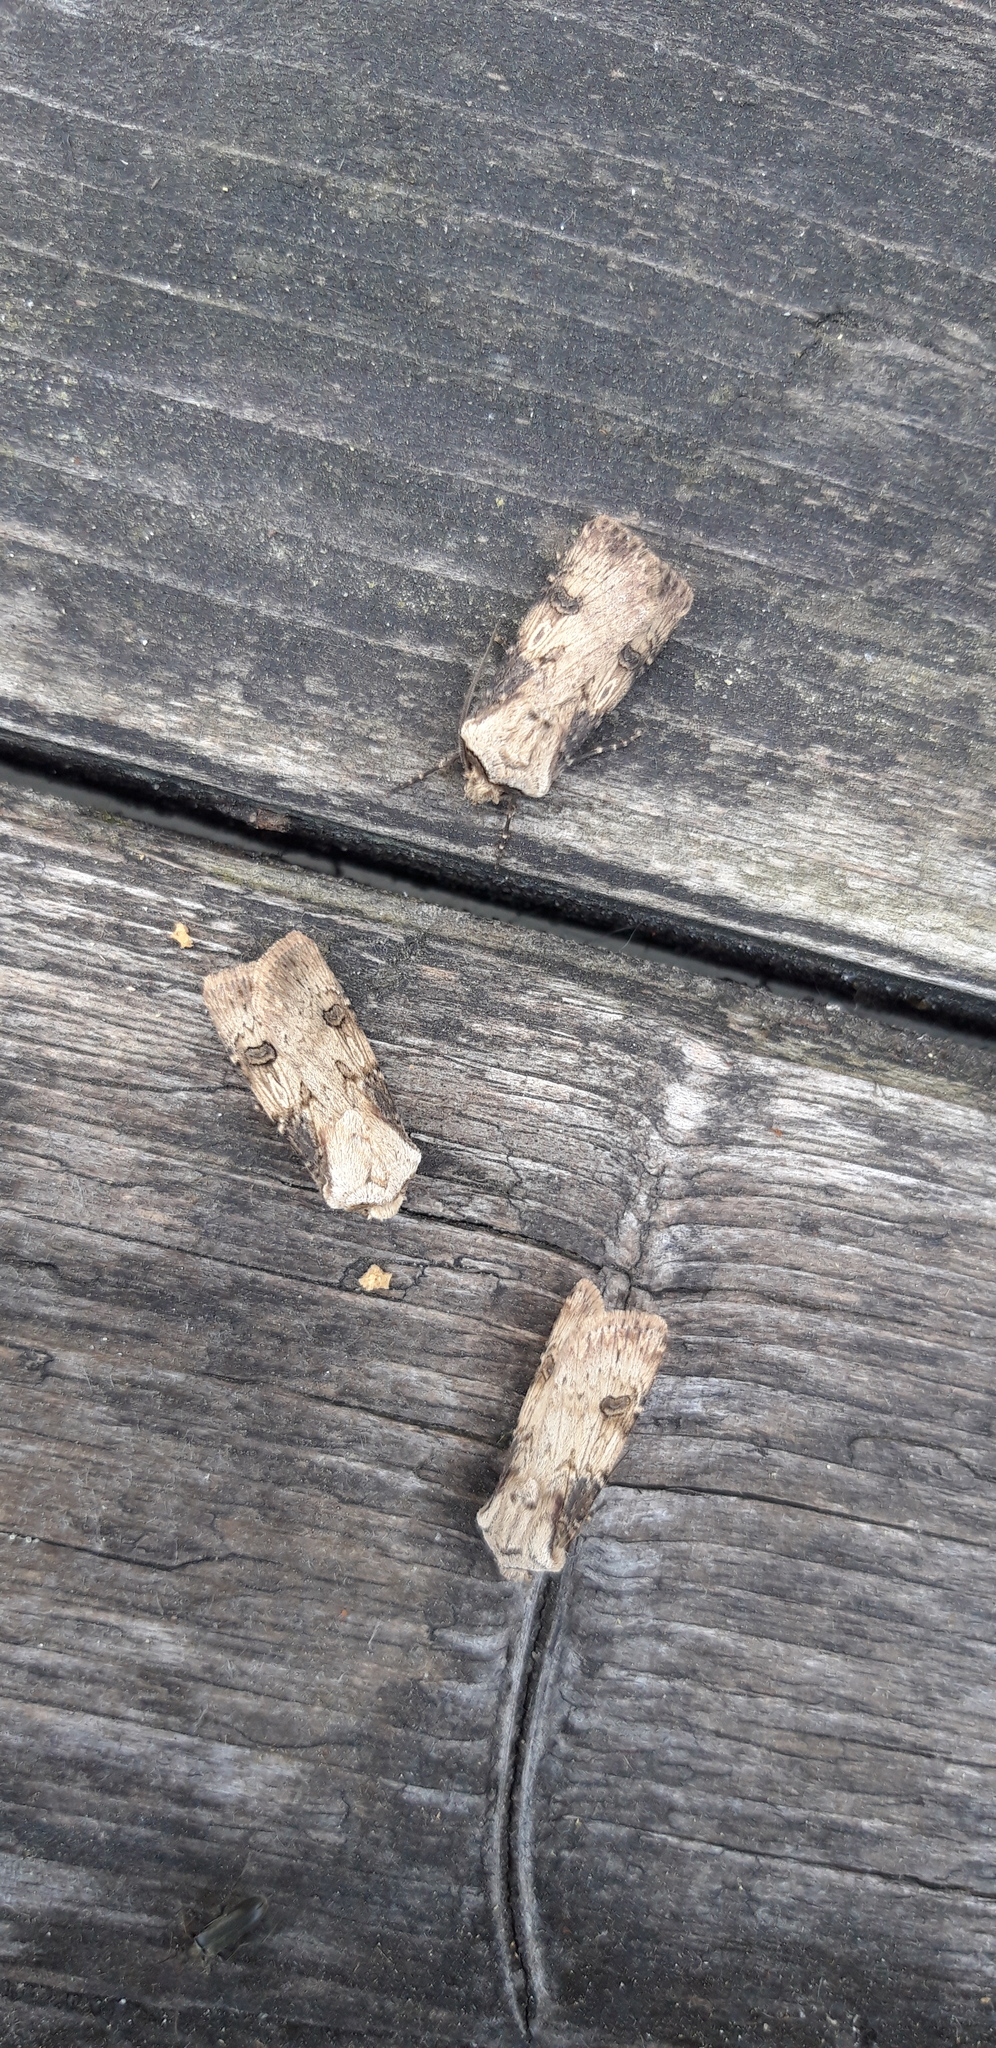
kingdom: Animalia
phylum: Arthropoda
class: Insecta
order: Lepidoptera
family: Noctuidae
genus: Agrotis
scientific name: Agrotis puta
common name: Shuttle-shaped dart
